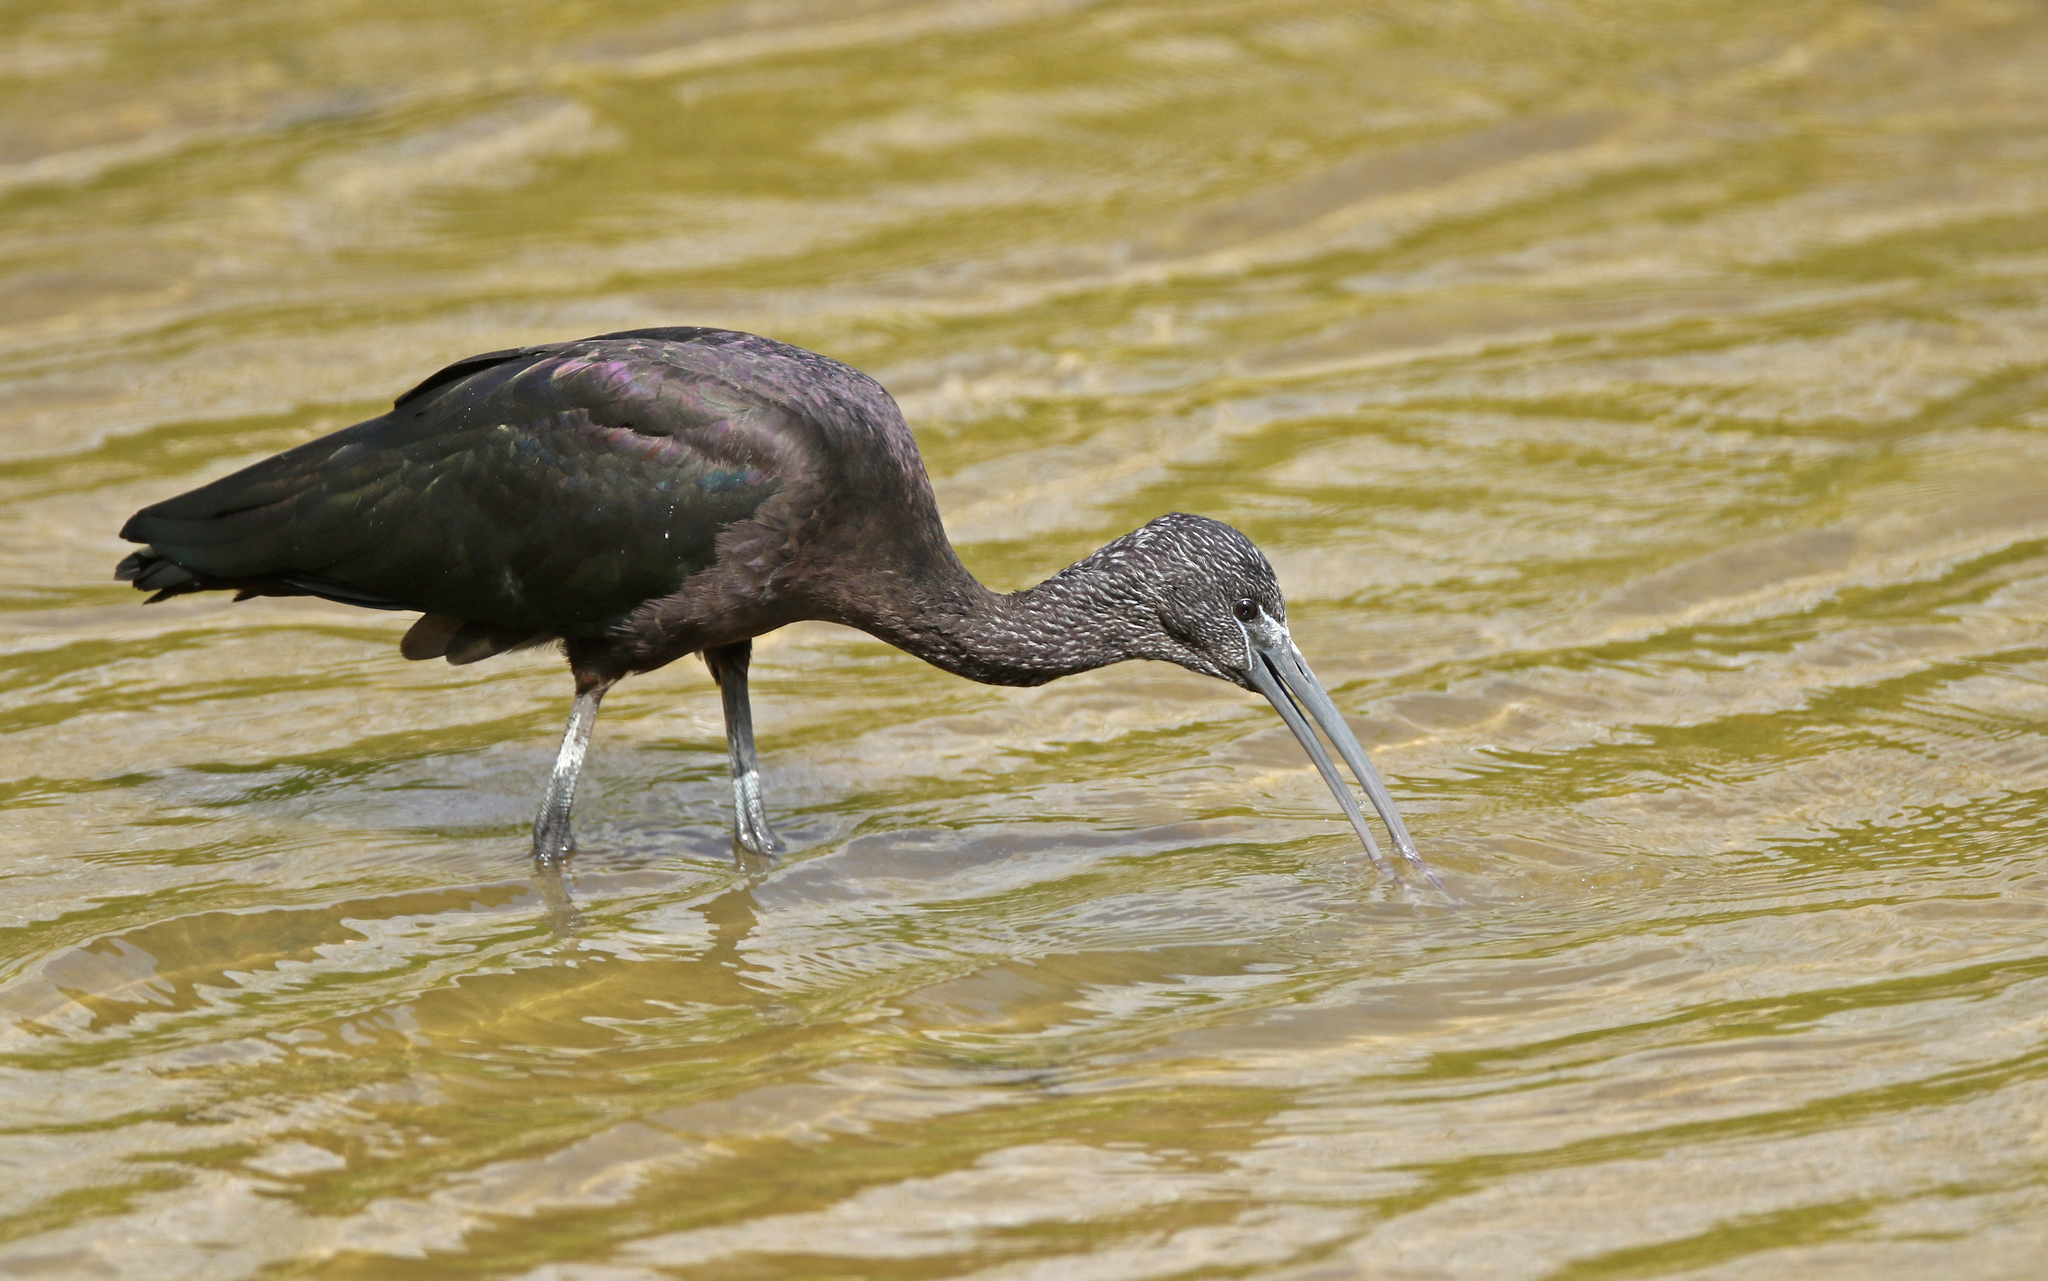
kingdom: Animalia
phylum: Chordata
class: Aves
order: Pelecaniformes
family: Threskiornithidae
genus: Plegadis
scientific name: Plegadis falcinellus
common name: Glossy ibis
